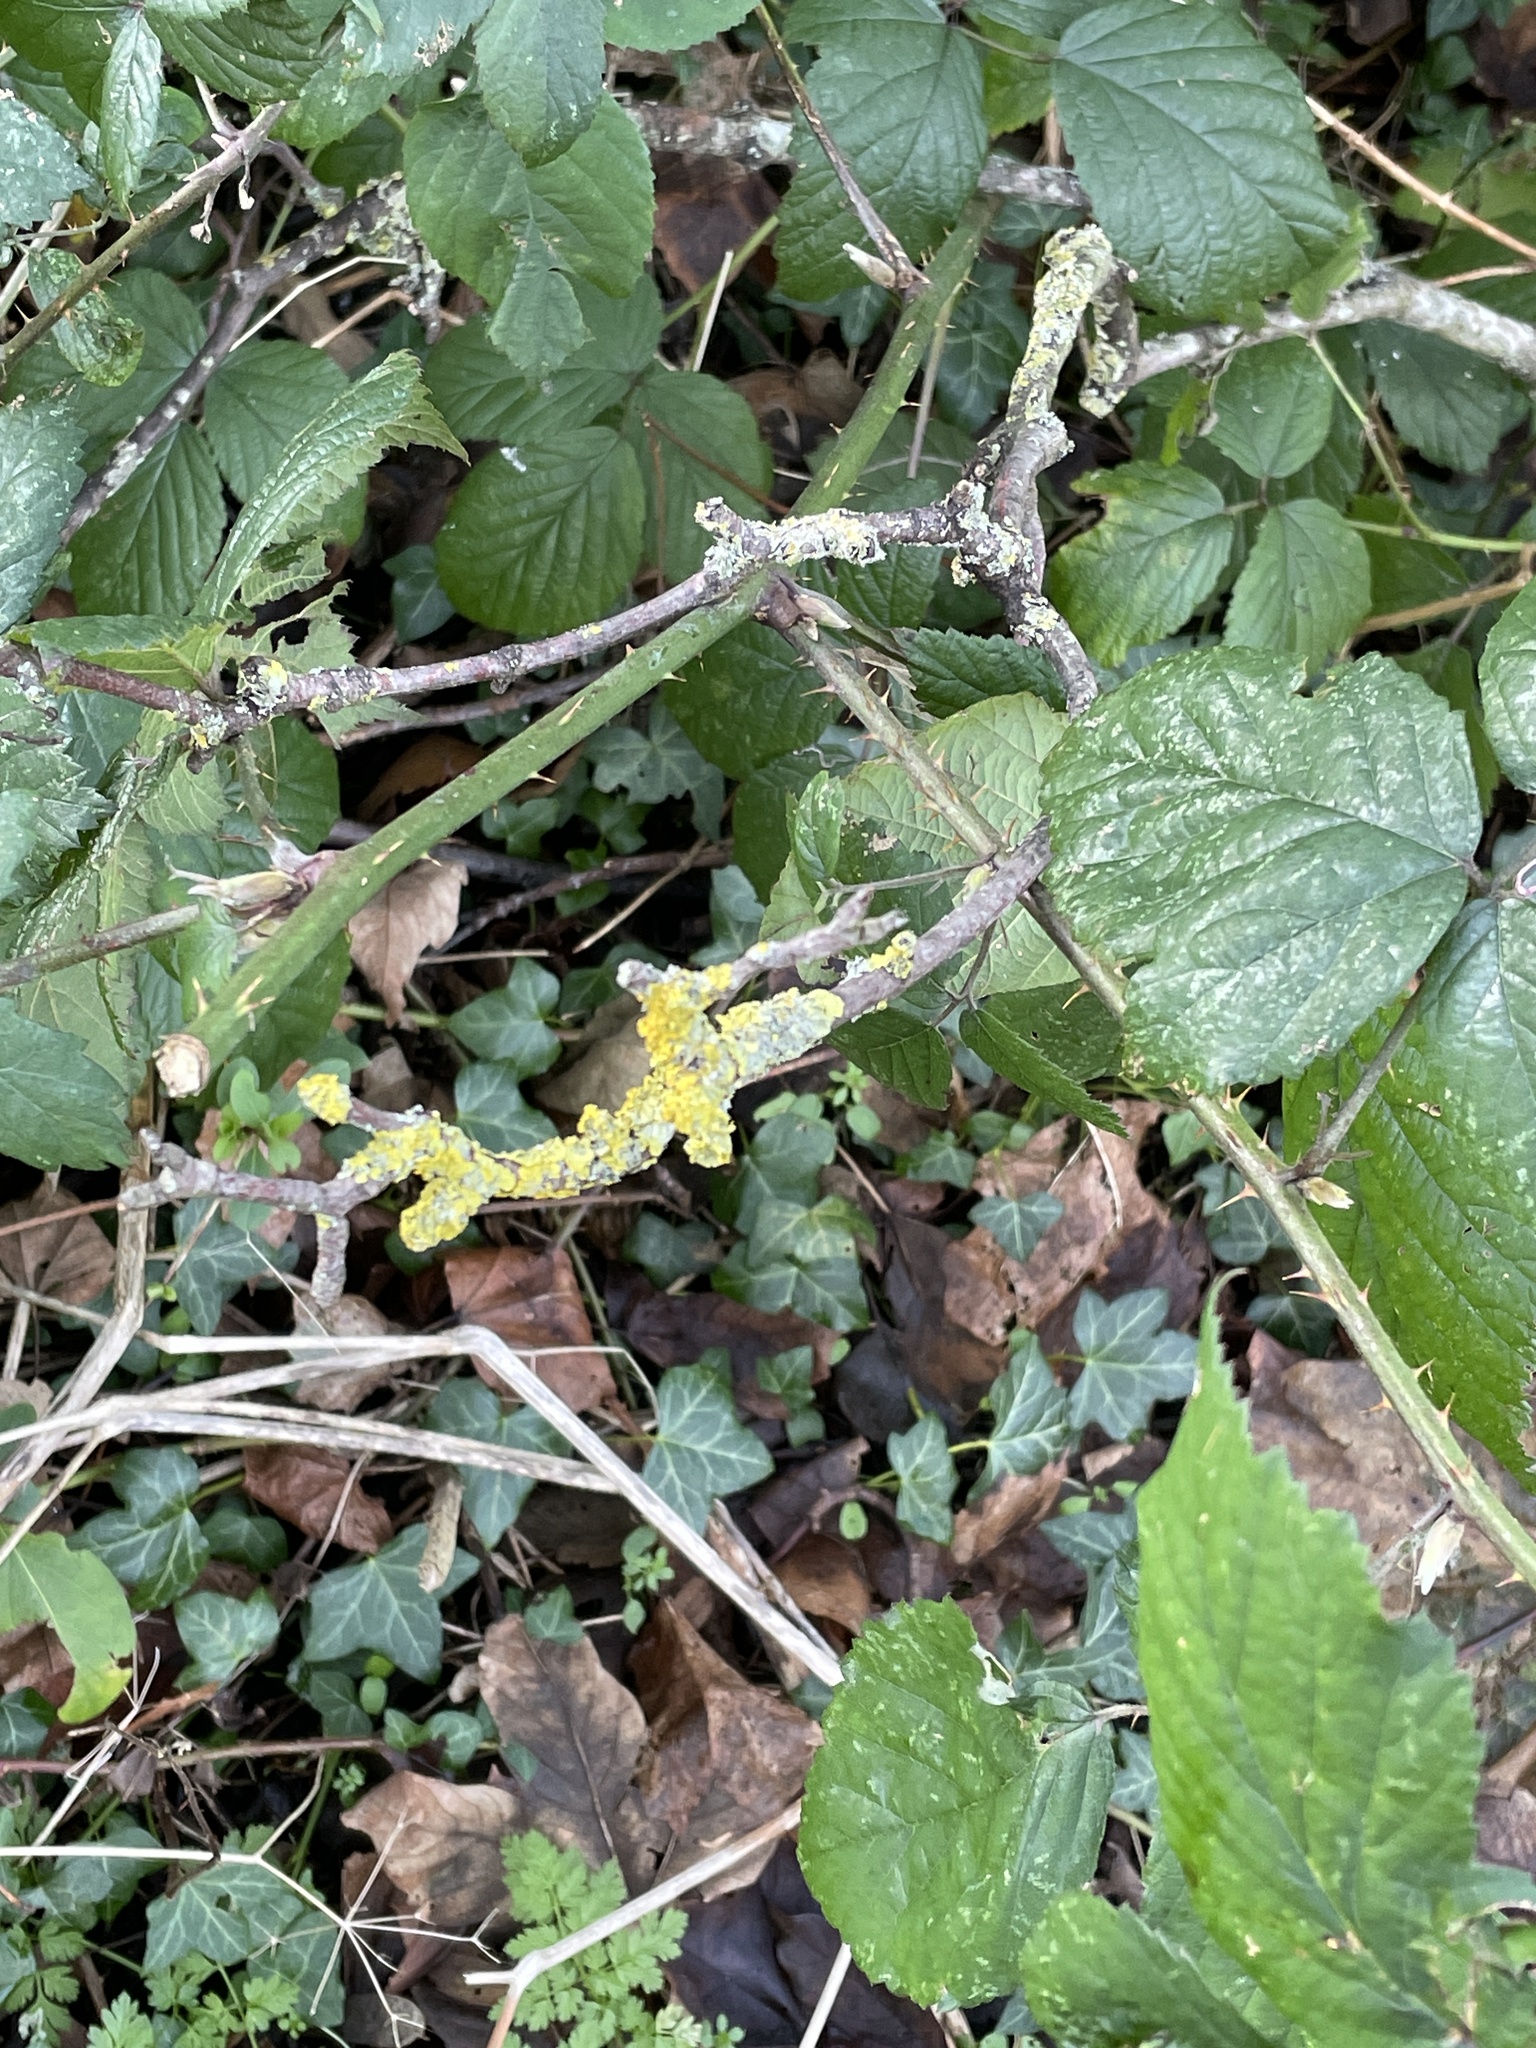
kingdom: Fungi
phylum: Ascomycota
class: Lecanoromycetes
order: Teloschistales
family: Teloschistaceae
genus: Xanthoria
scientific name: Xanthoria parietina
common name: Common orange lichen
